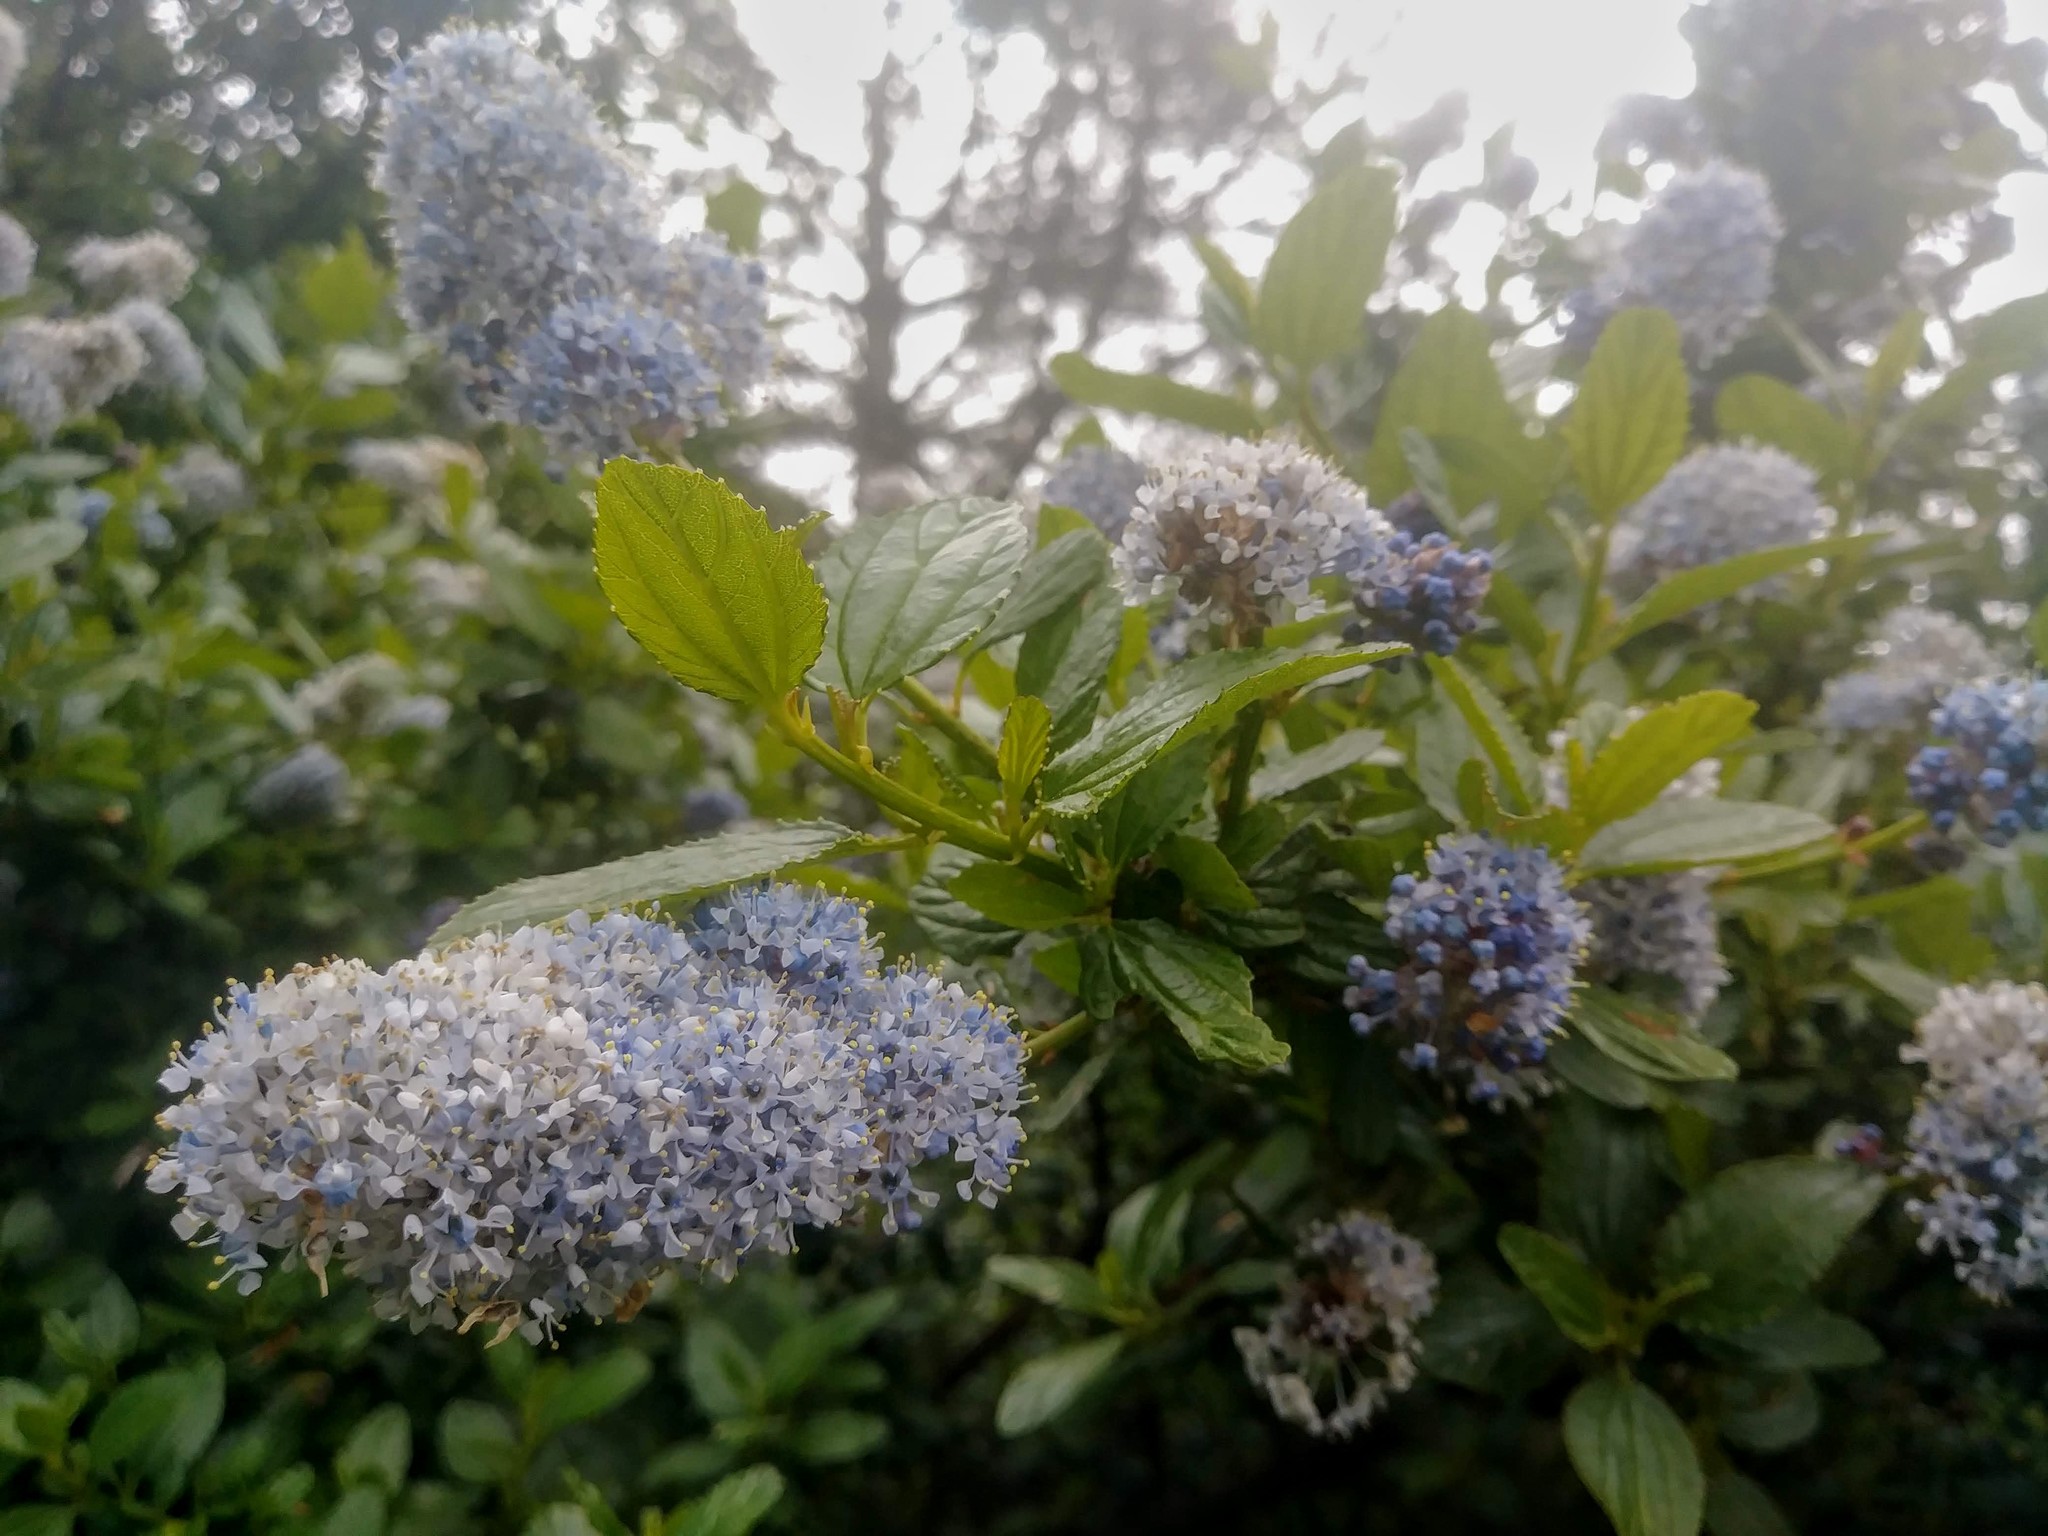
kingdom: Plantae
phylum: Tracheophyta
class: Magnoliopsida
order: Rosales
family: Rhamnaceae
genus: Ceanothus
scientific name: Ceanothus thyrsiflorus
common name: California-lilac
